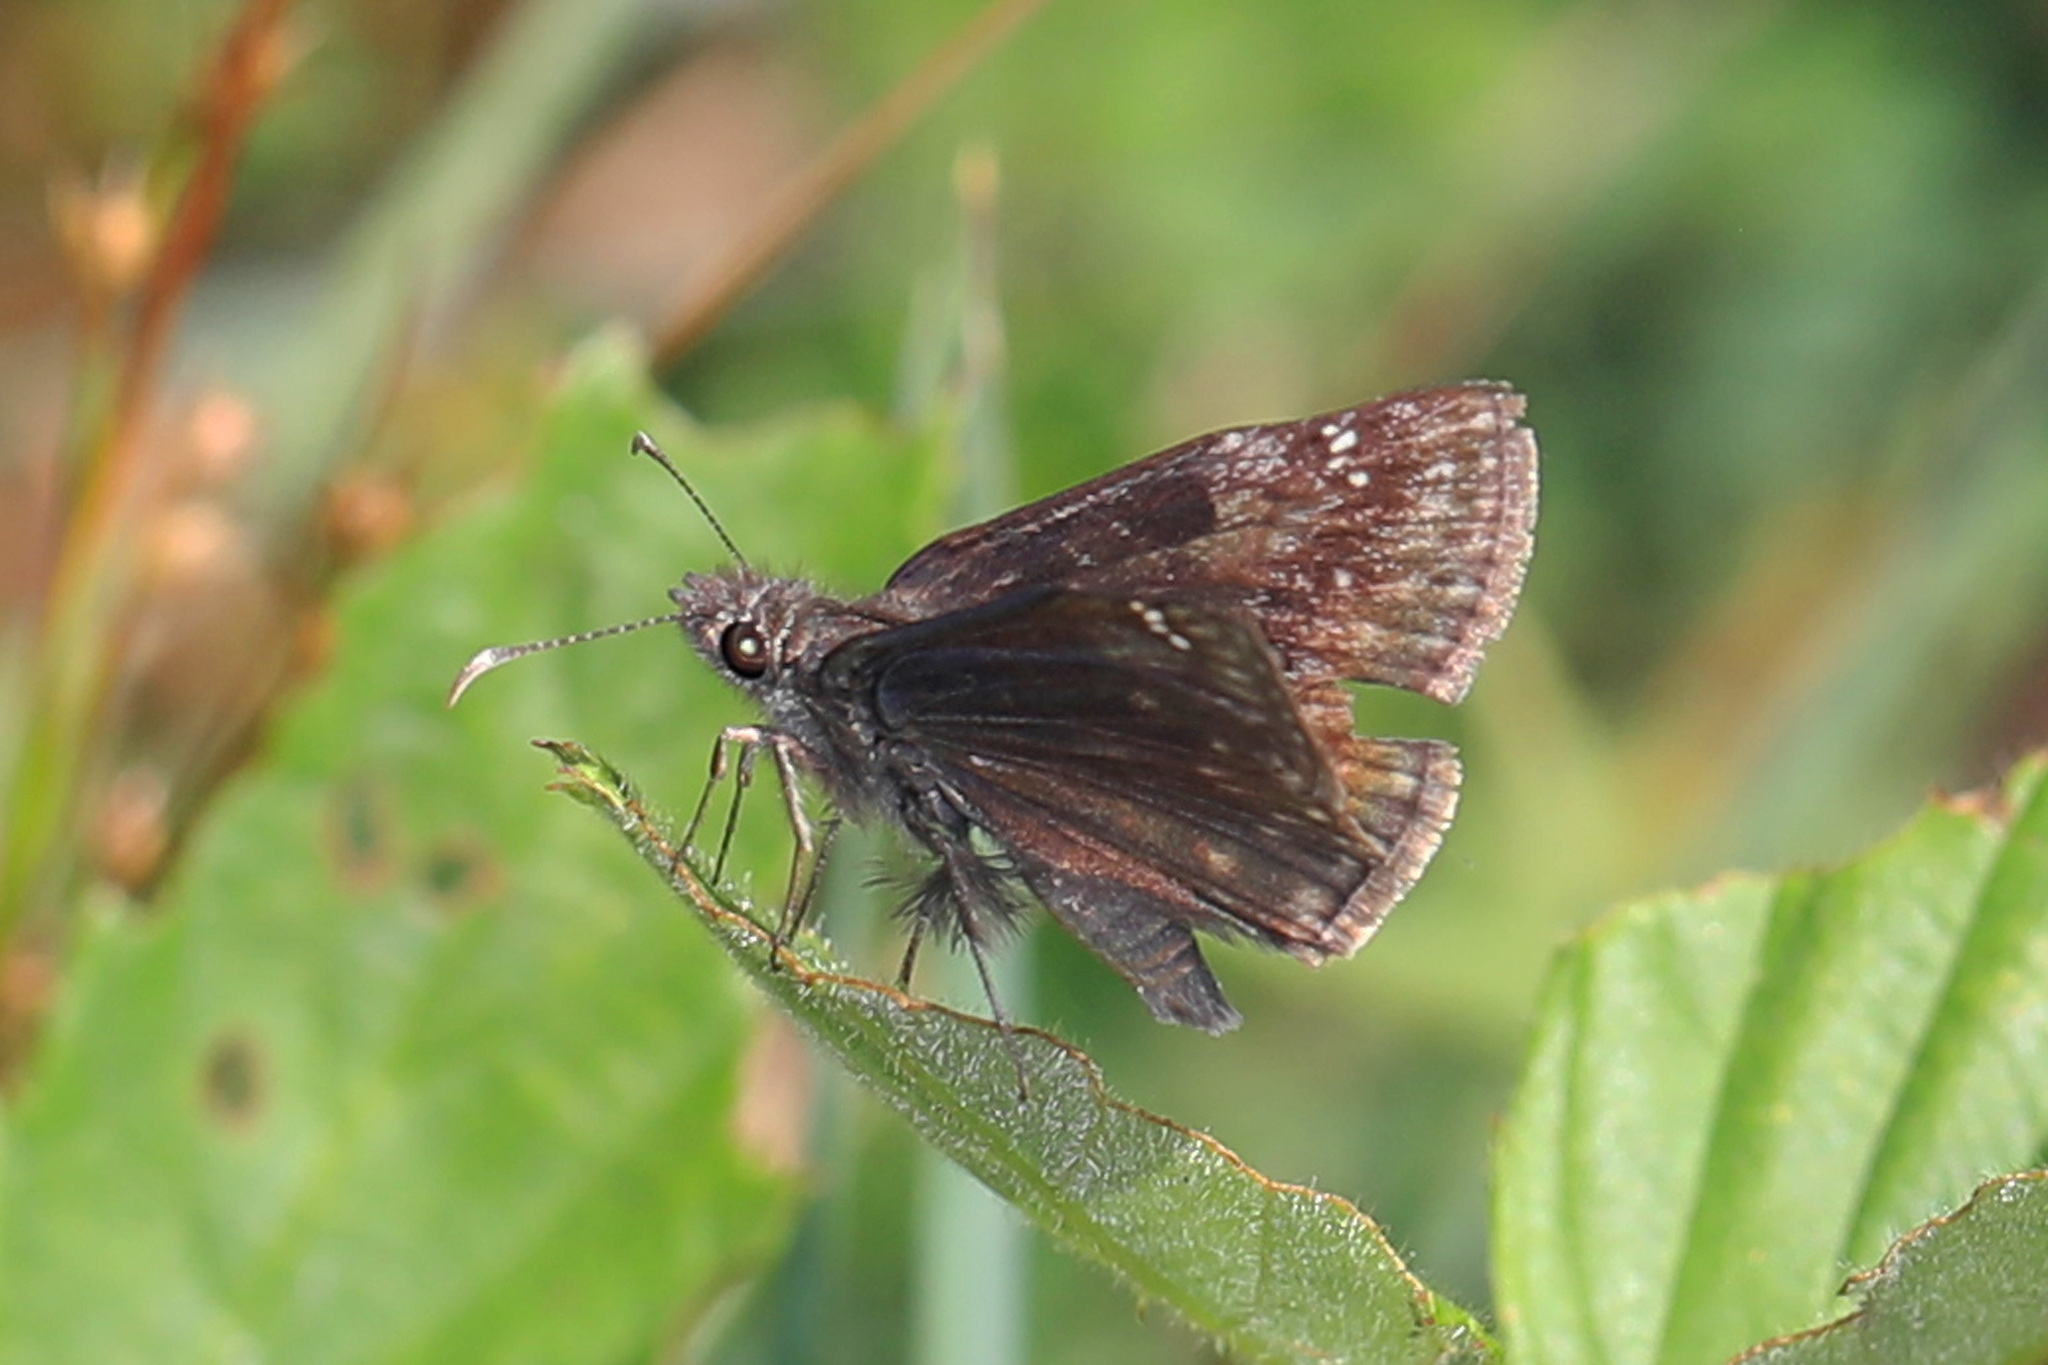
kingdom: Animalia
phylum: Arthropoda
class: Insecta
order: Lepidoptera
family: Hesperiidae
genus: Erynnis
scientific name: Erynnis baptisiae
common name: Wild indigo duskywing
